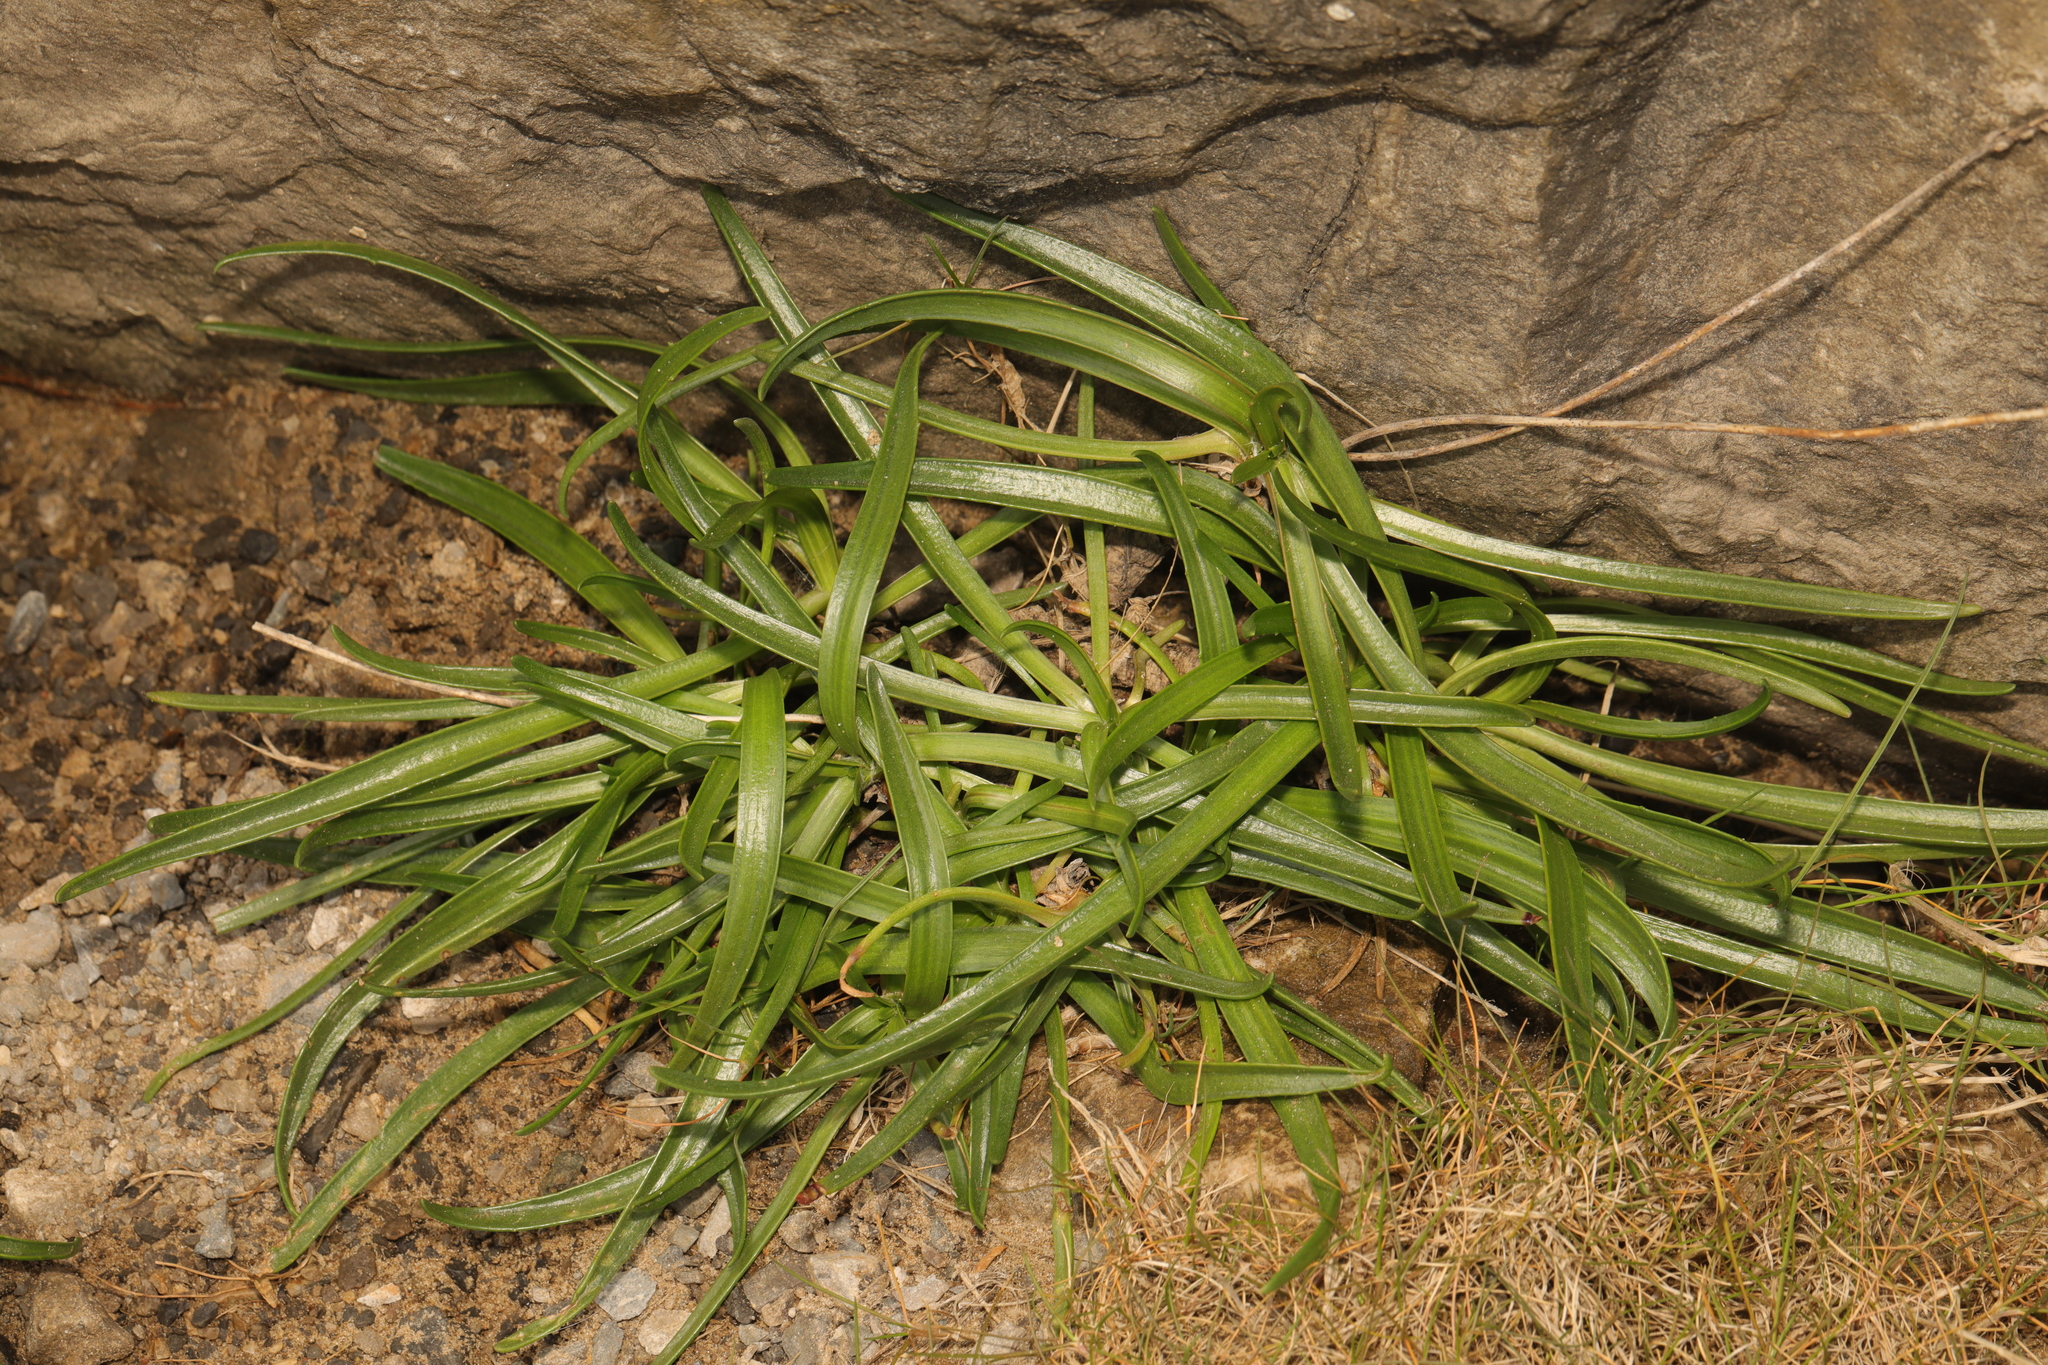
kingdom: Plantae
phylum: Tracheophyta
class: Magnoliopsida
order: Lamiales
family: Plantaginaceae
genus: Plantago
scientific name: Plantago maritima
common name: Sea plantain
